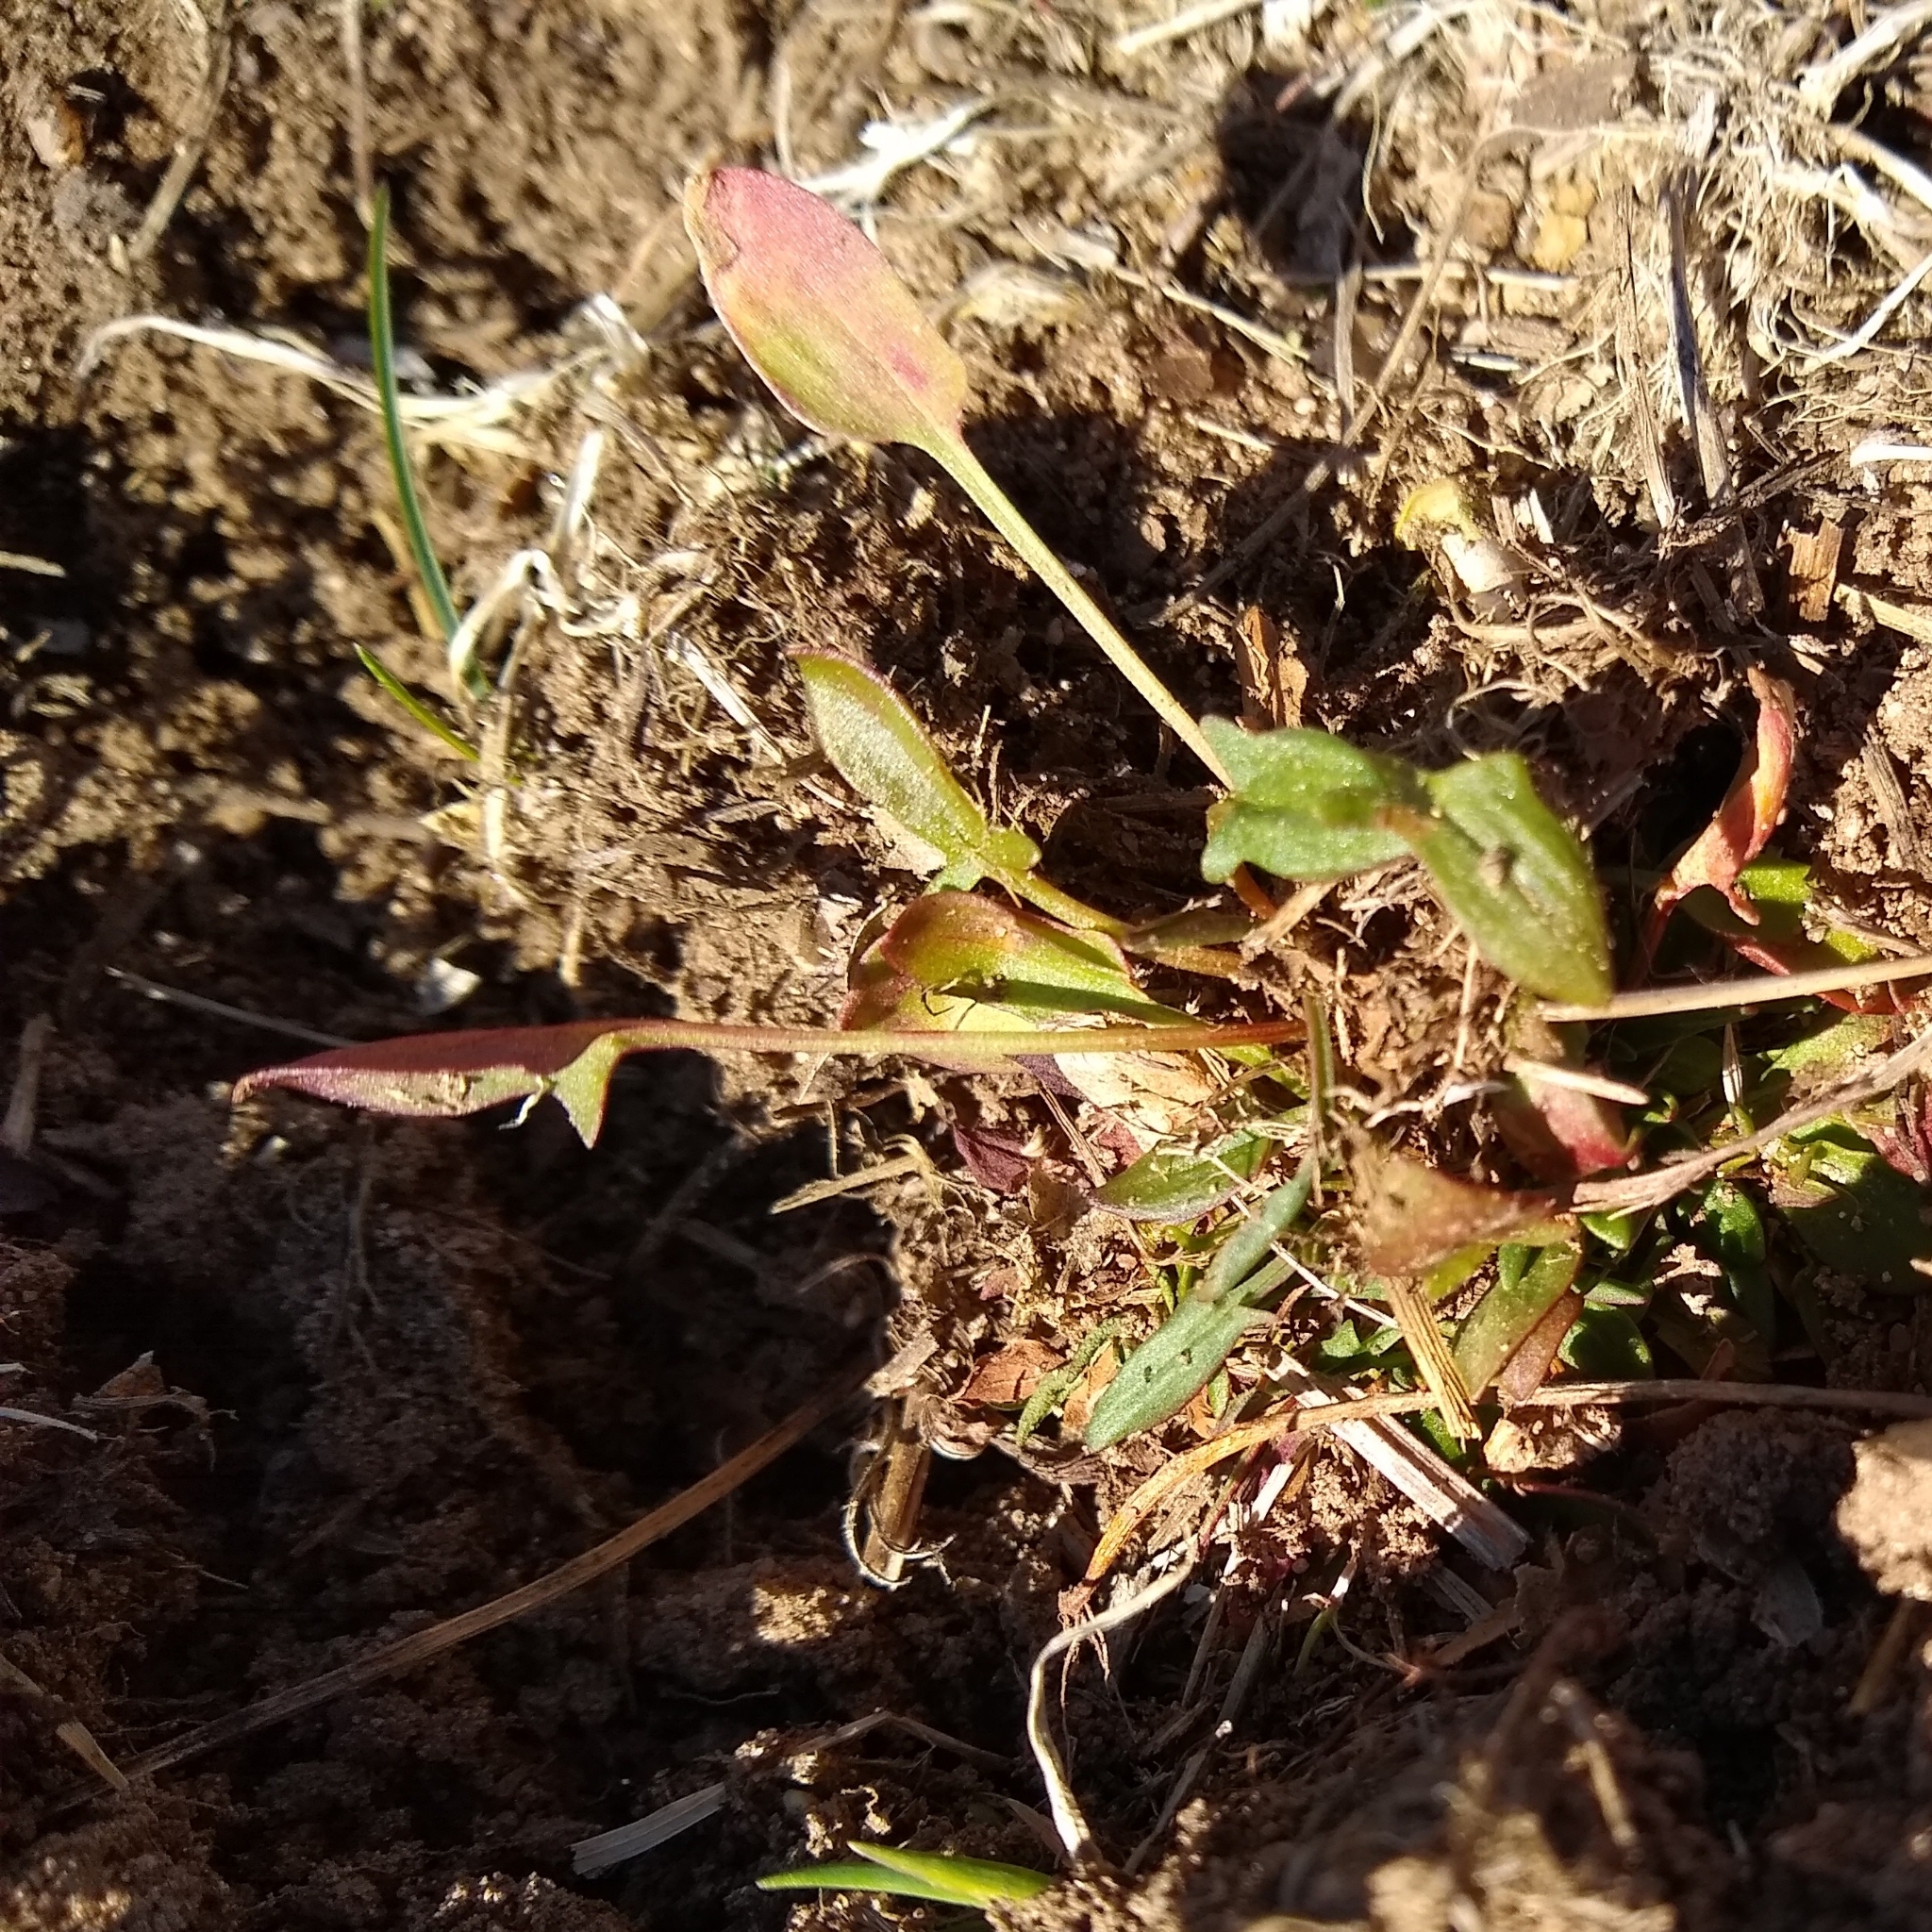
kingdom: Plantae
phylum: Tracheophyta
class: Magnoliopsida
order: Caryophyllales
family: Polygonaceae
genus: Rumex
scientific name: Rumex acetosella
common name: Common sheep sorrel
